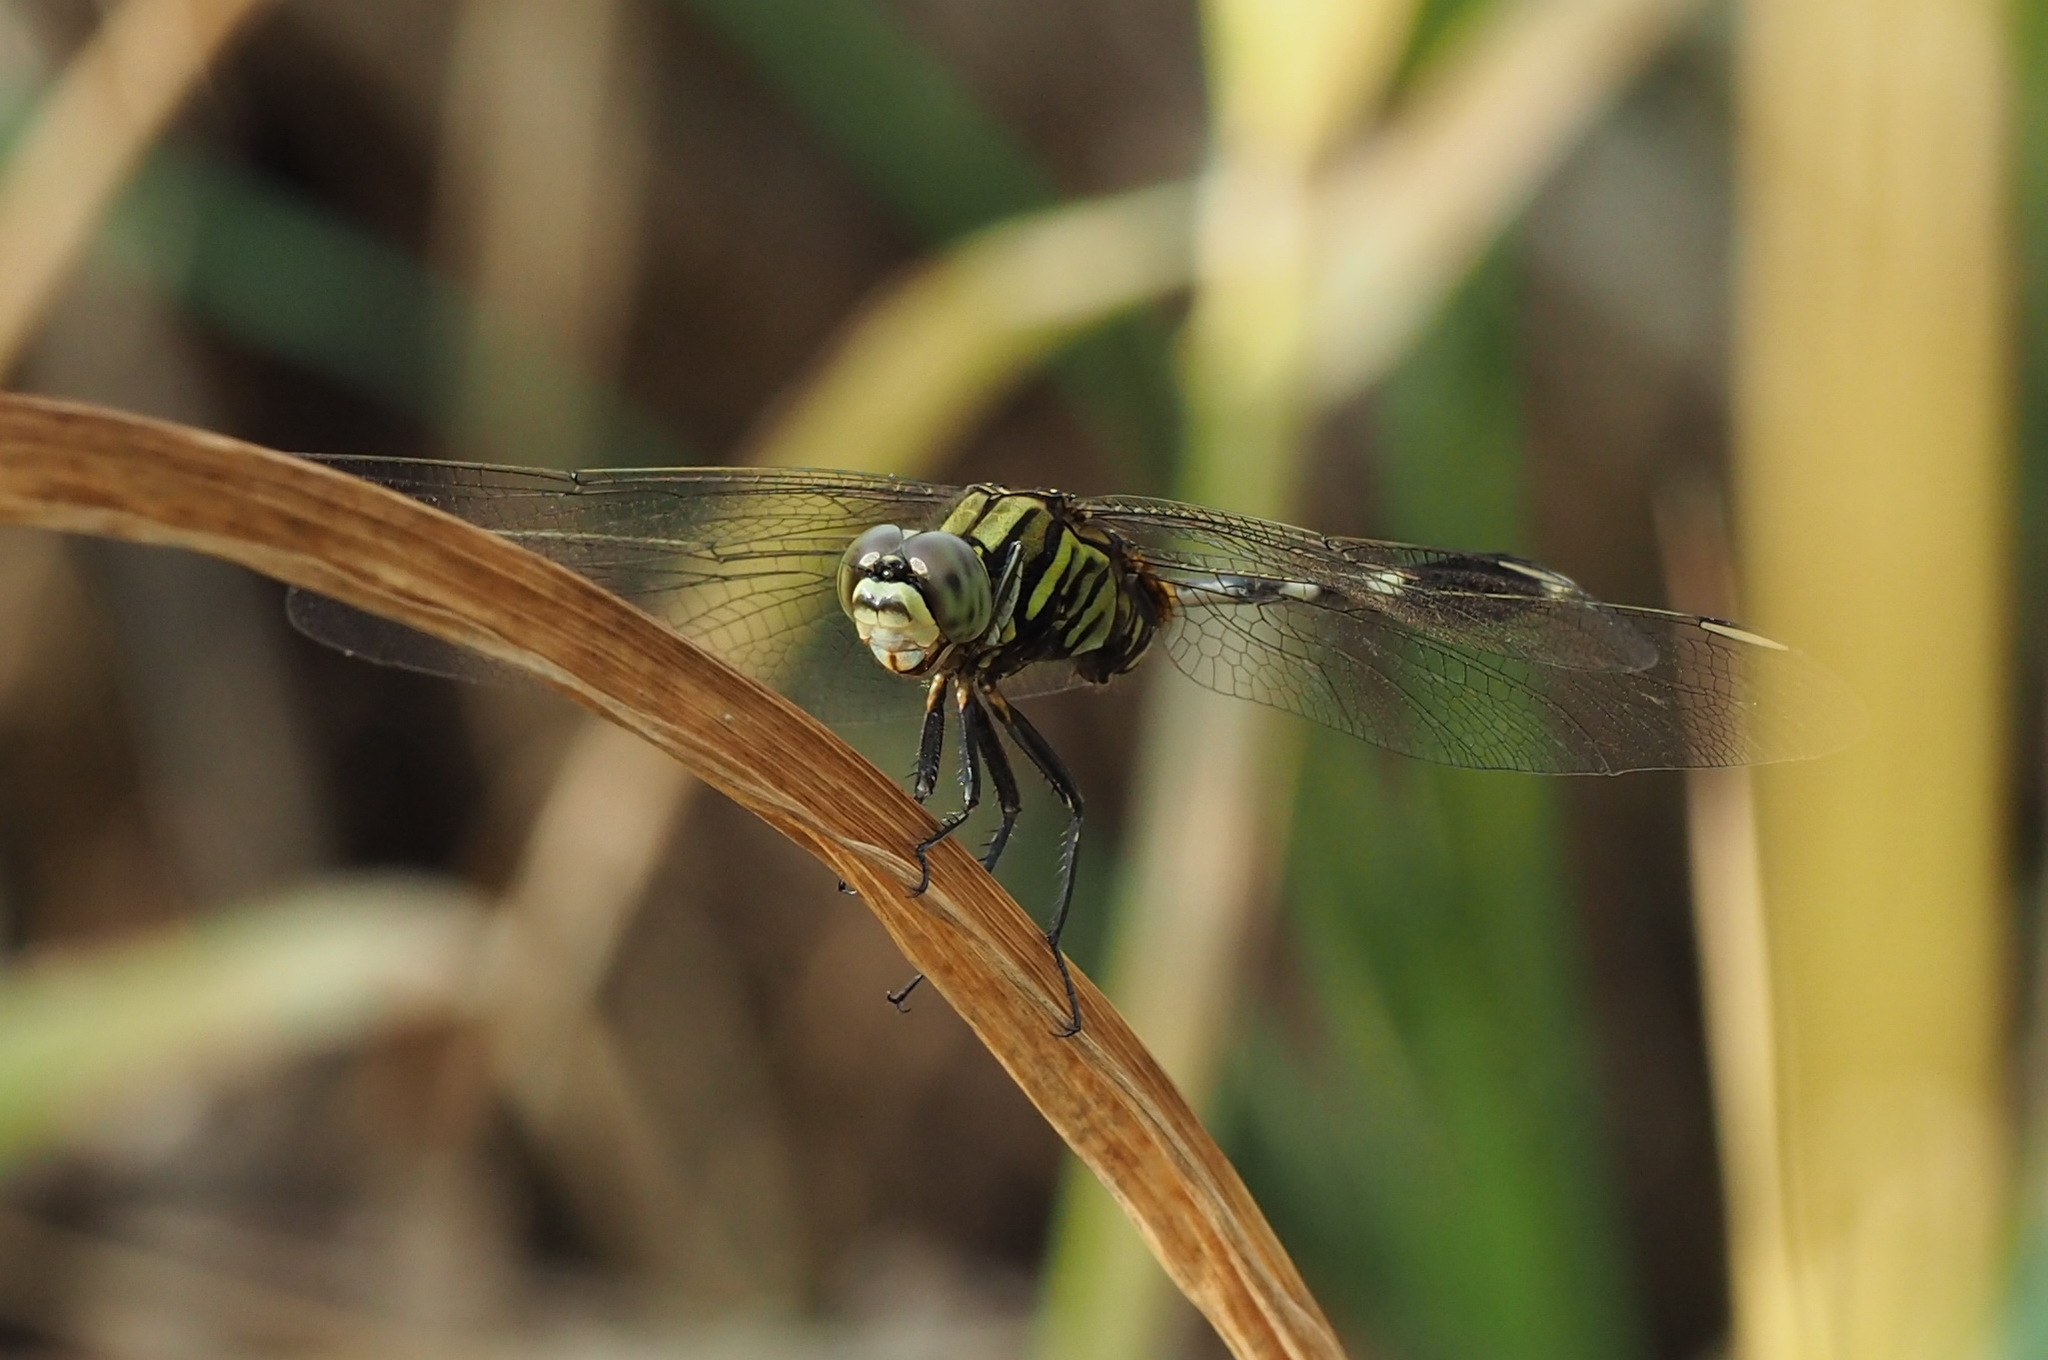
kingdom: Animalia
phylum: Arthropoda
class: Insecta
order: Odonata
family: Libellulidae
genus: Orthetrum
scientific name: Orthetrum sabina
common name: Slender skimmer
